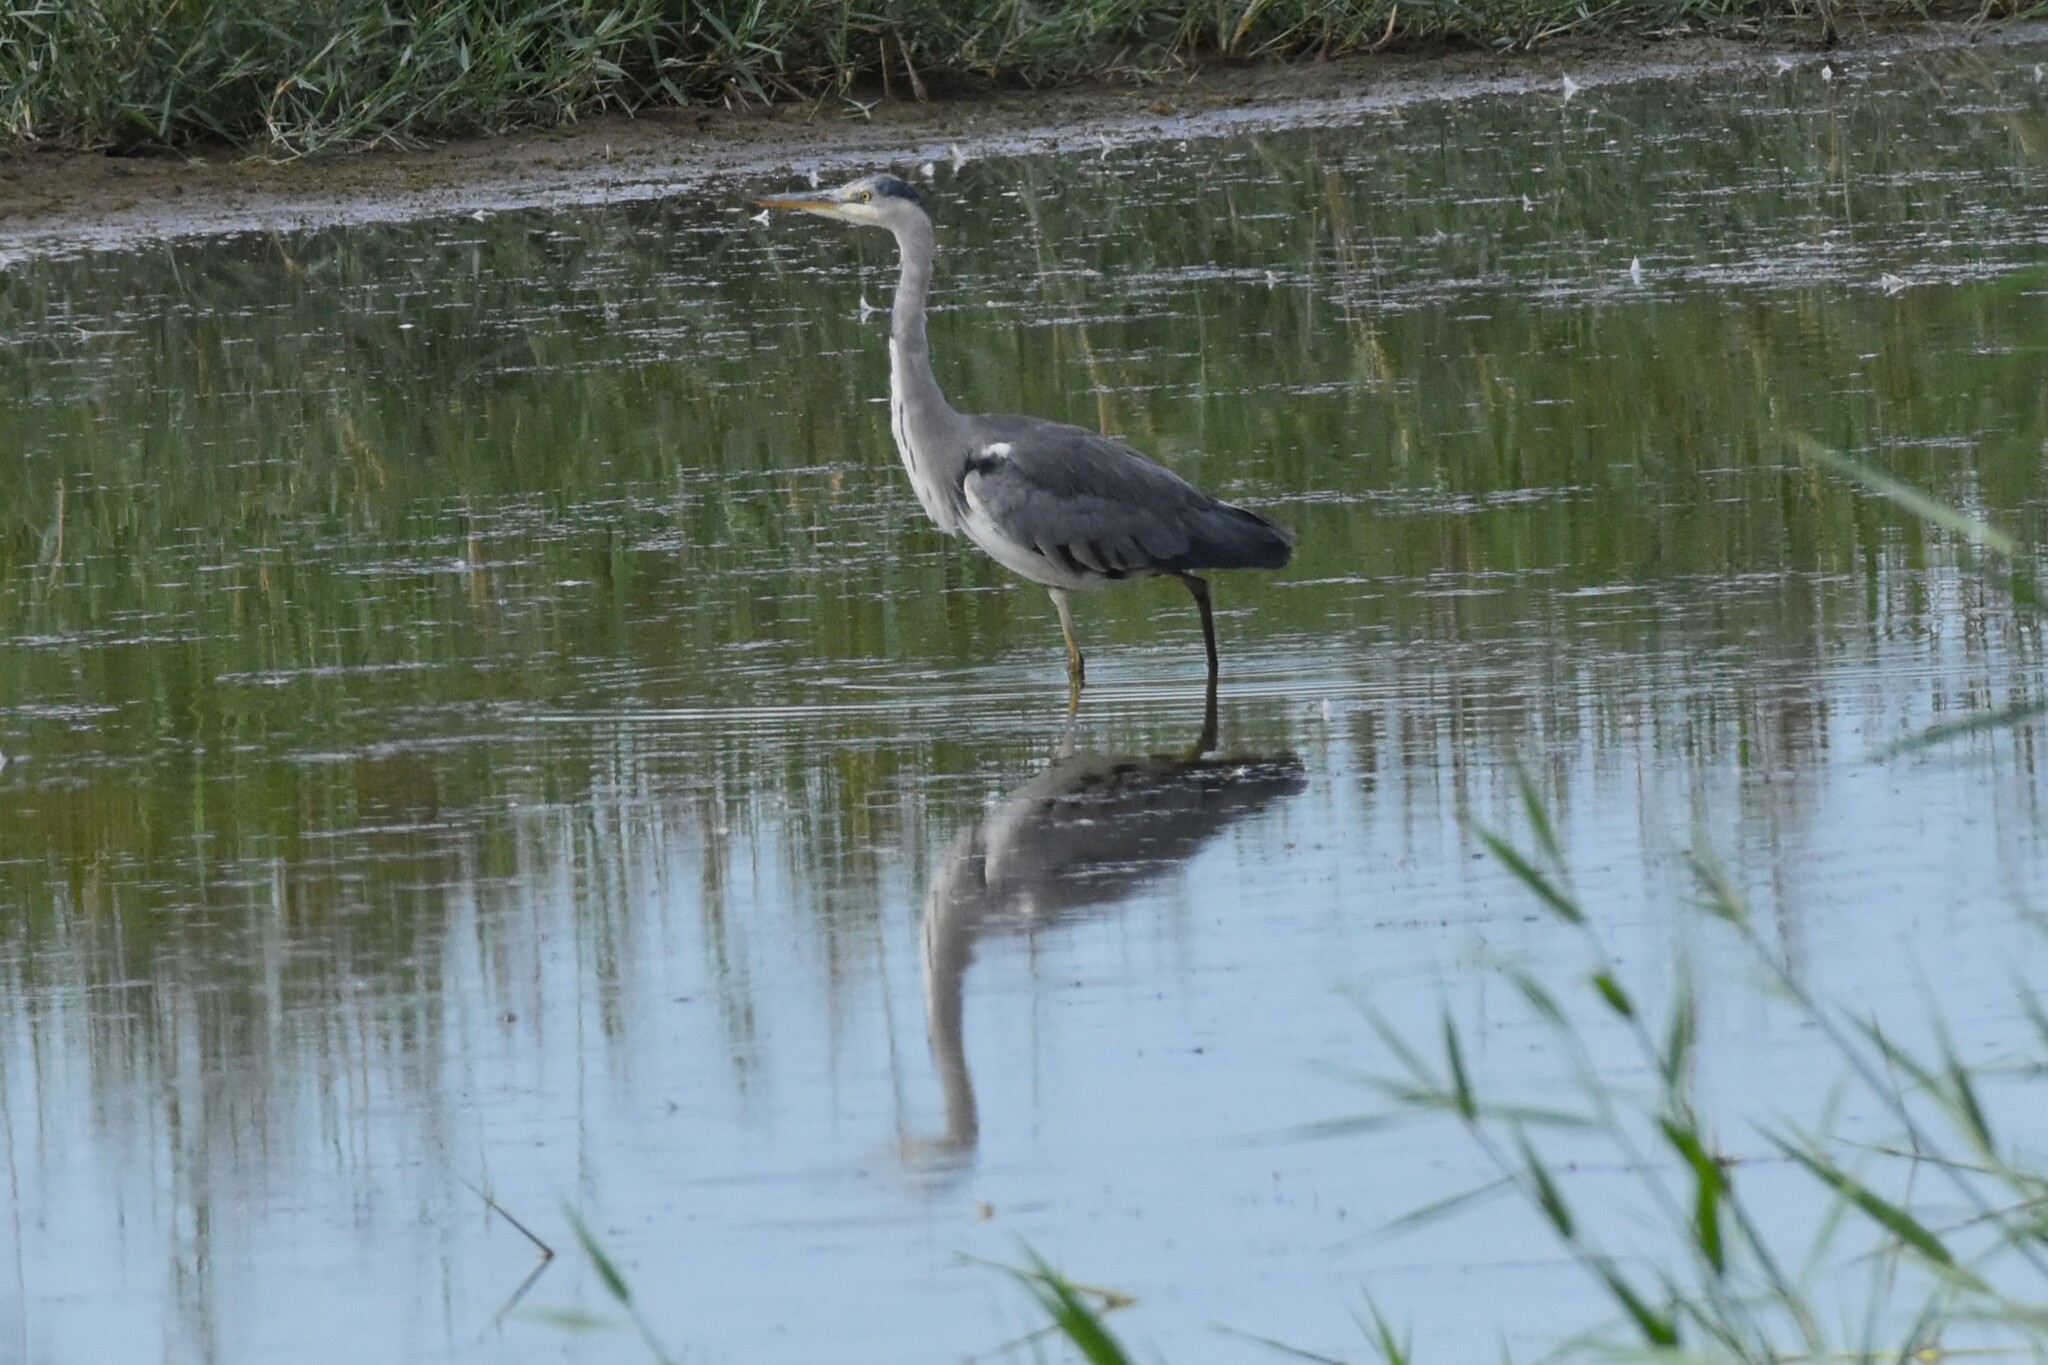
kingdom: Animalia
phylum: Chordata
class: Aves
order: Pelecaniformes
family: Ardeidae
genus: Ardea
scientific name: Ardea cinerea
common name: Grey heron
